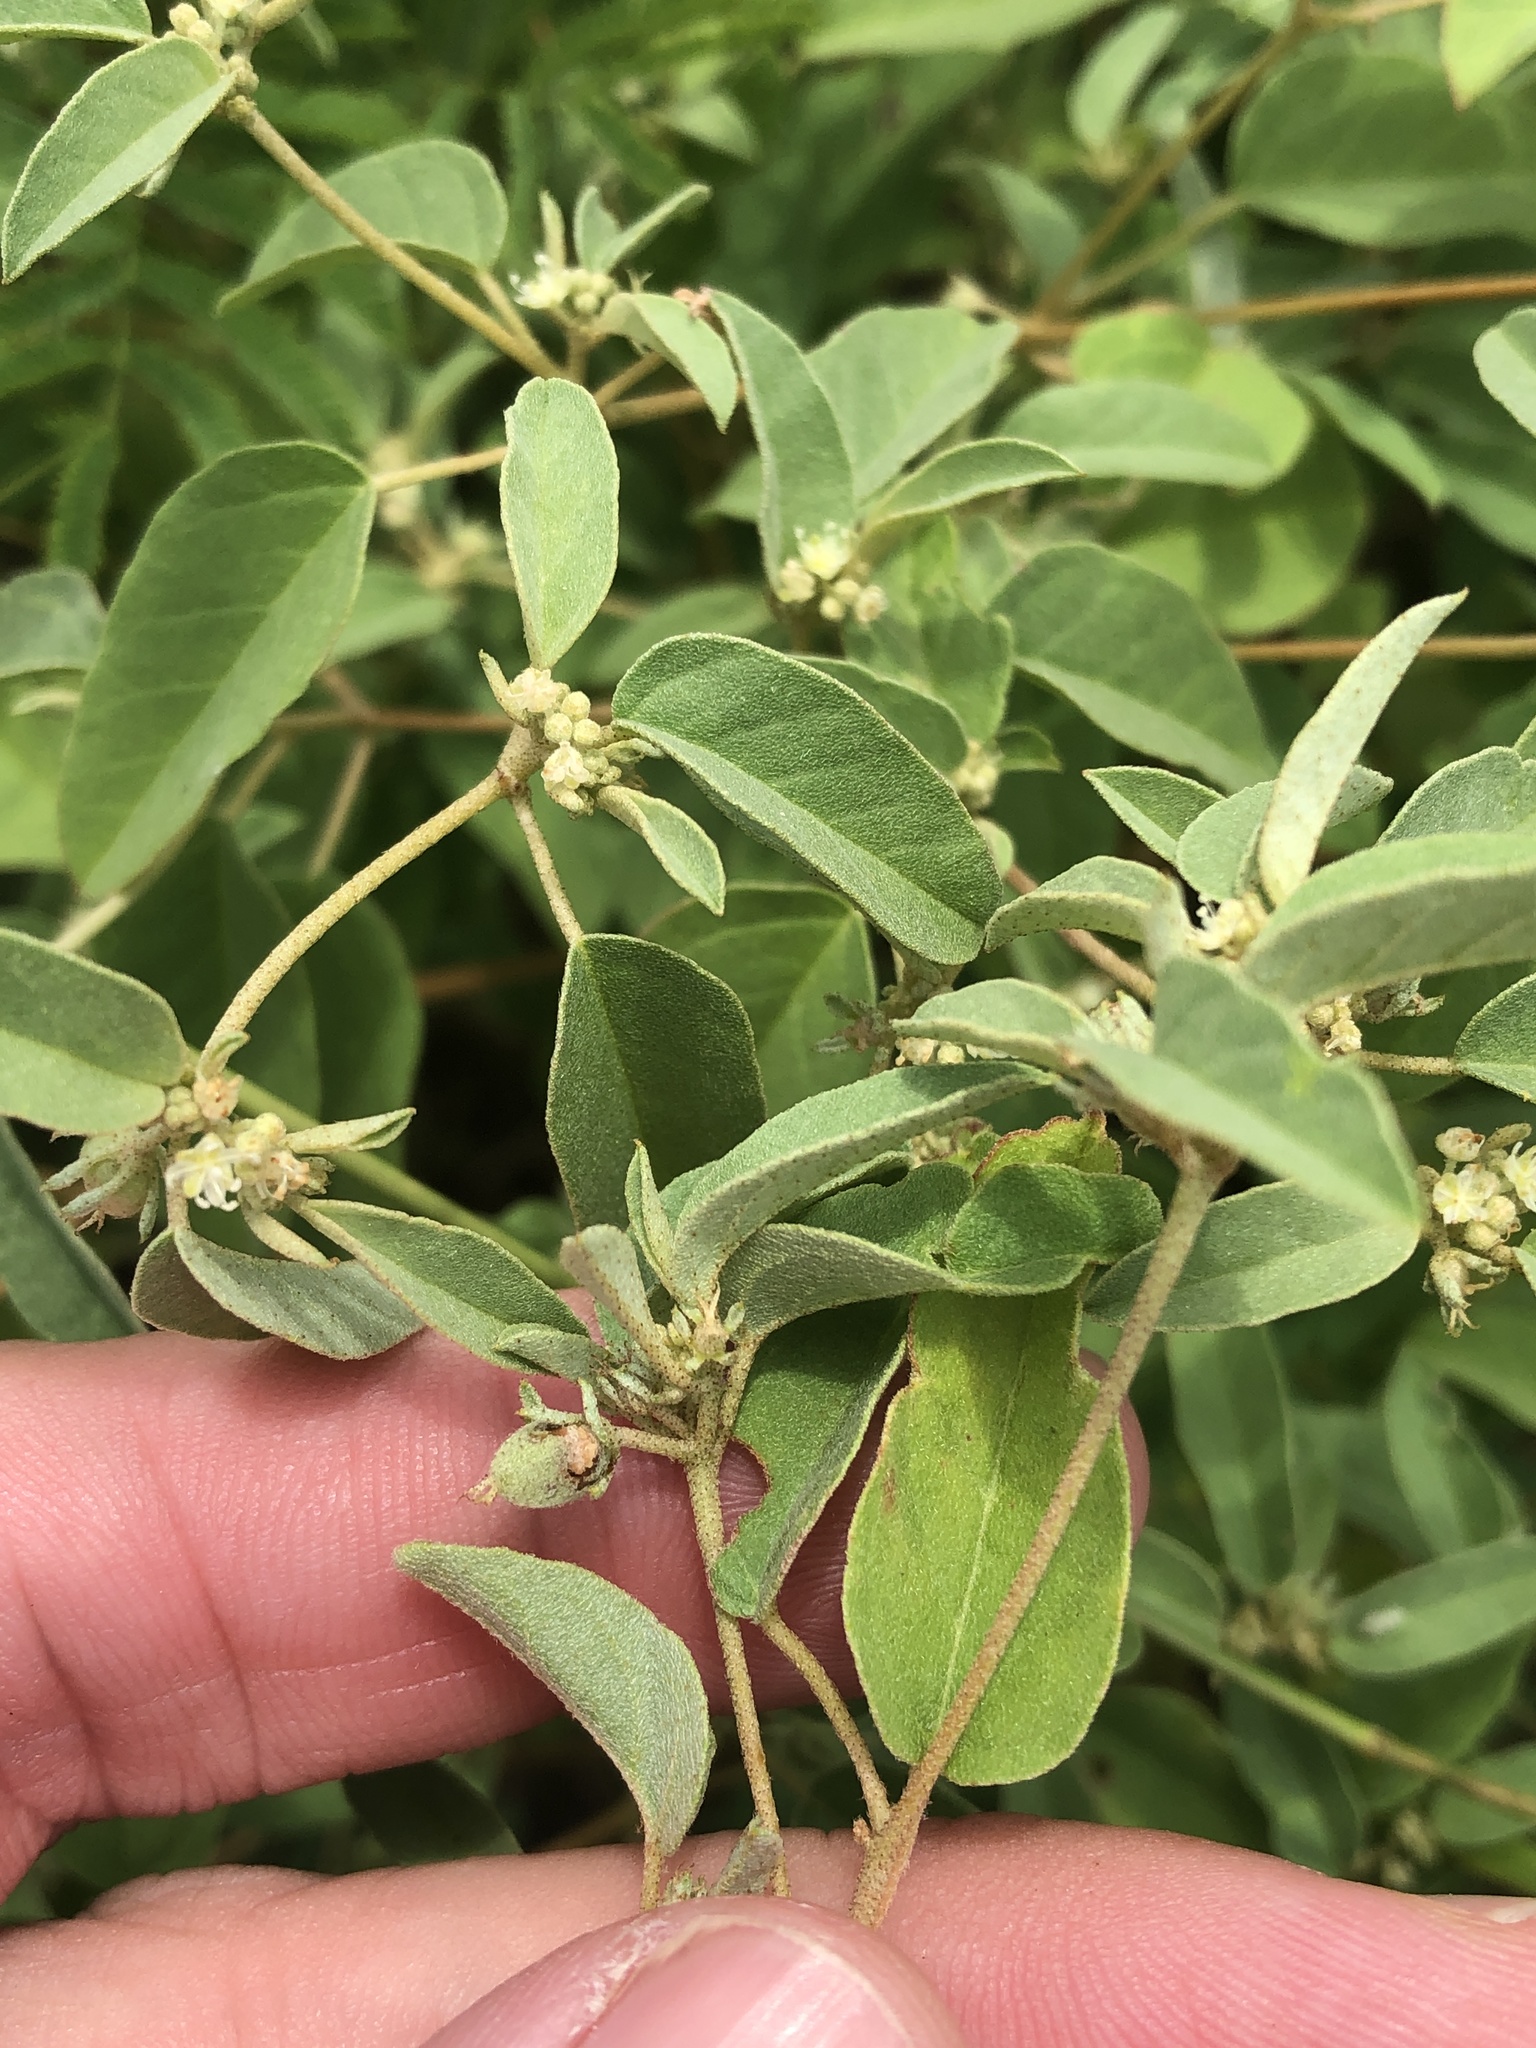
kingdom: Plantae
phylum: Tracheophyta
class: Magnoliopsida
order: Malpighiales
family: Euphorbiaceae
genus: Croton
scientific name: Croton monanthogynus
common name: One-seed croton
